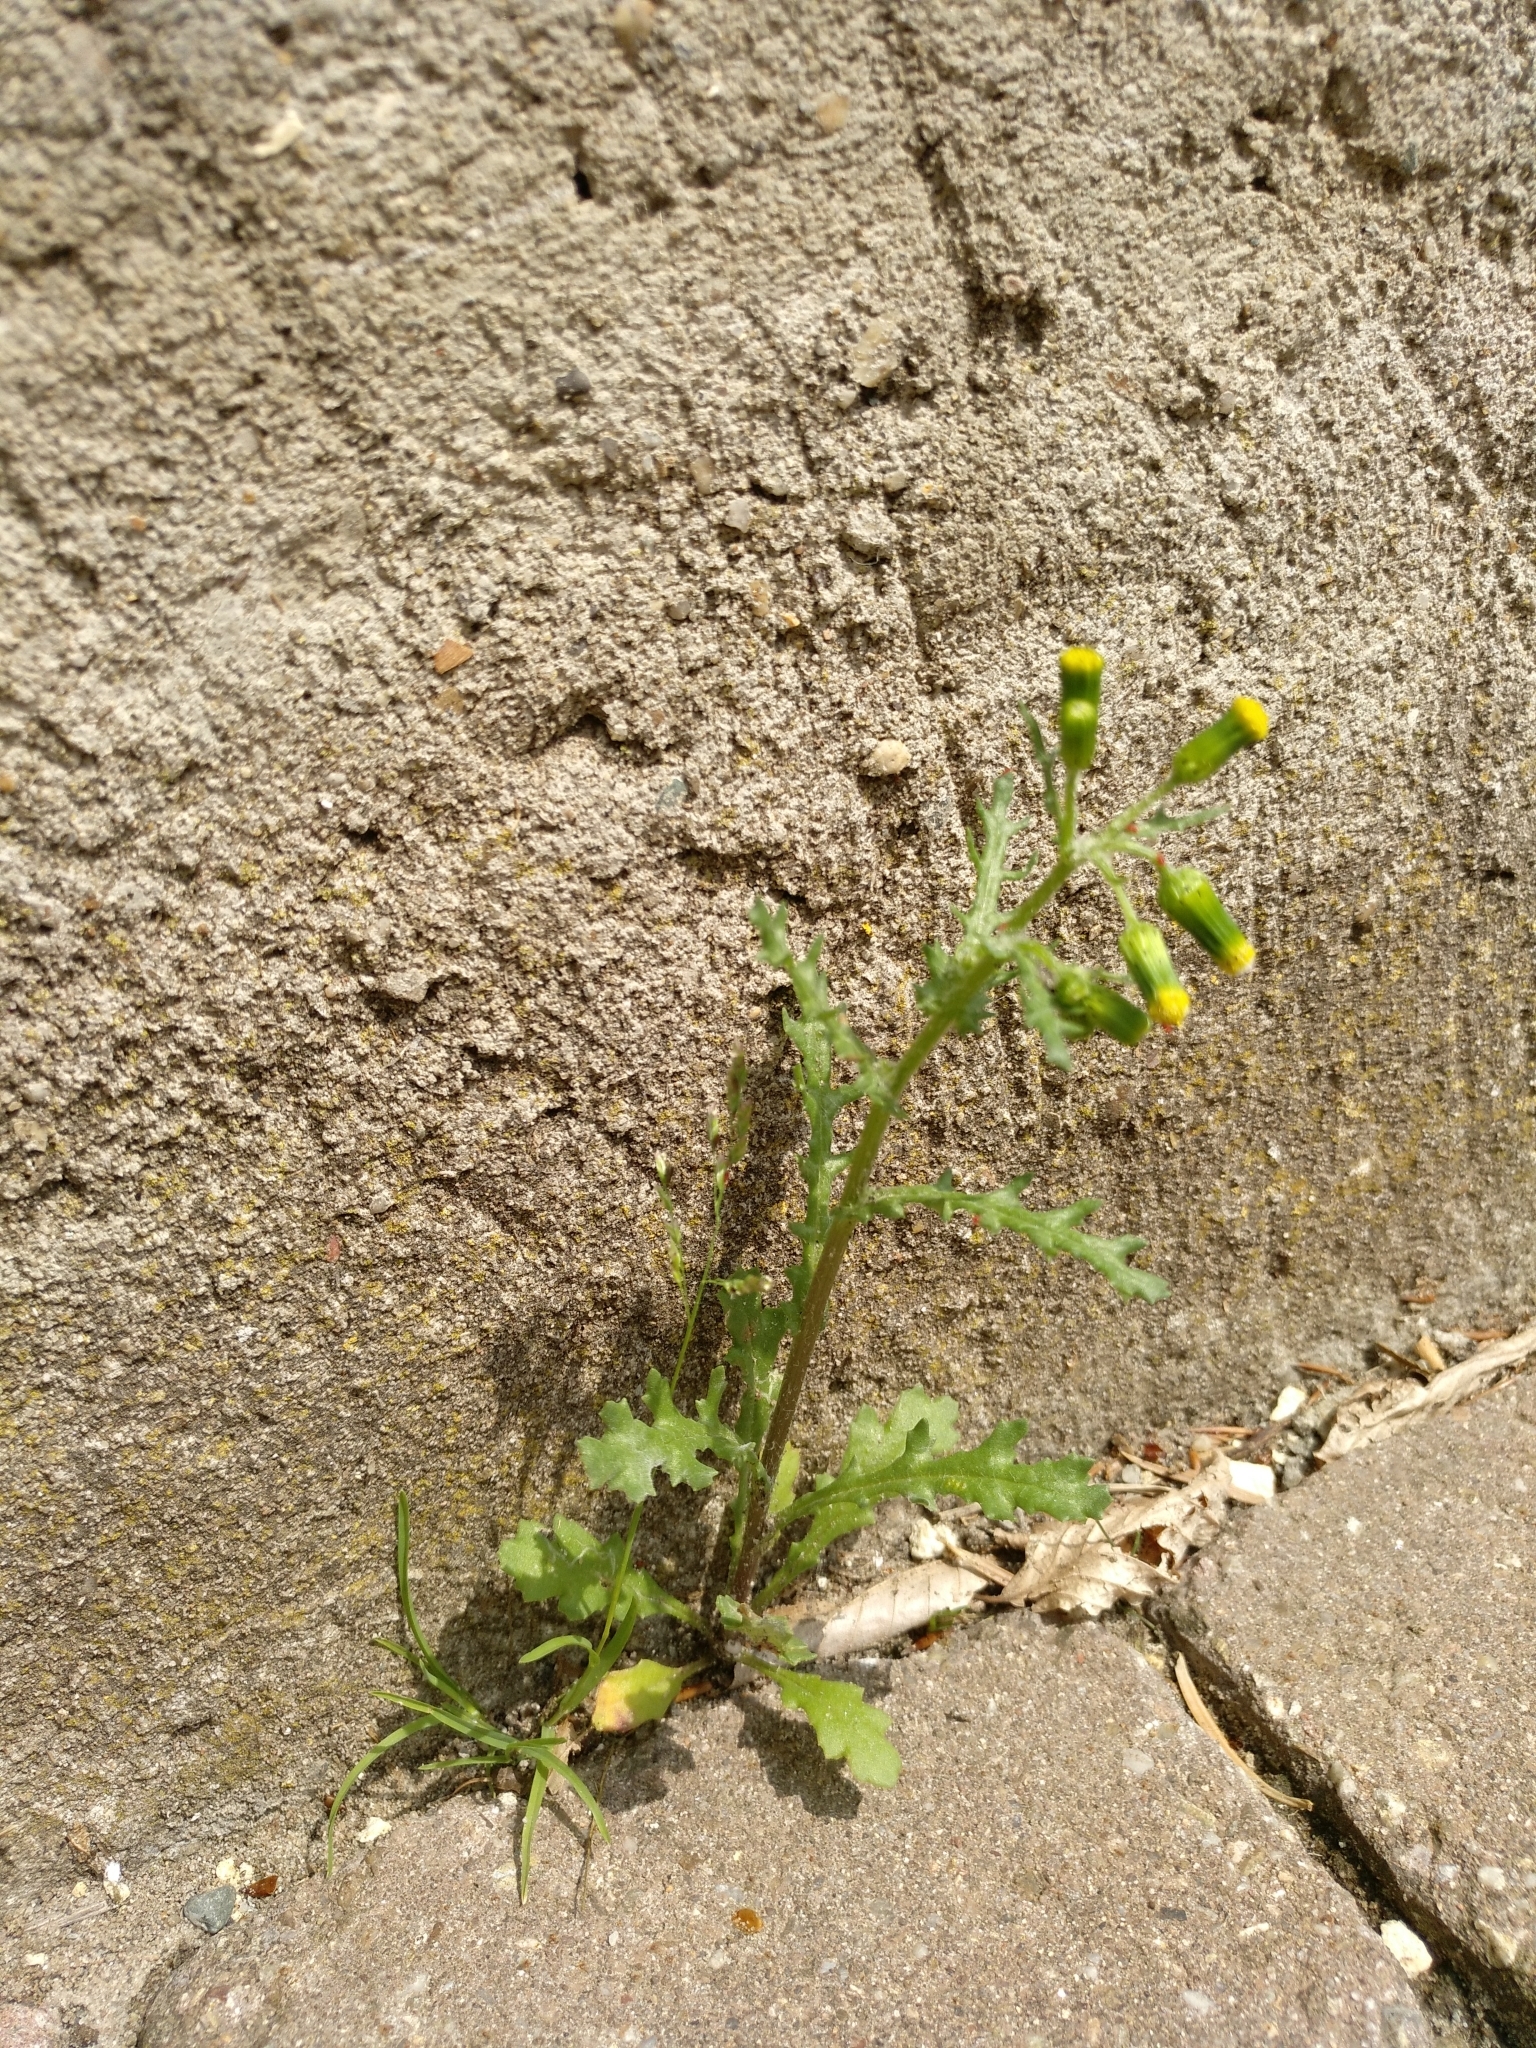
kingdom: Plantae
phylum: Tracheophyta
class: Magnoliopsida
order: Asterales
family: Asteraceae
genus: Senecio
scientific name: Senecio vulgaris
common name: Old-man-in-the-spring
